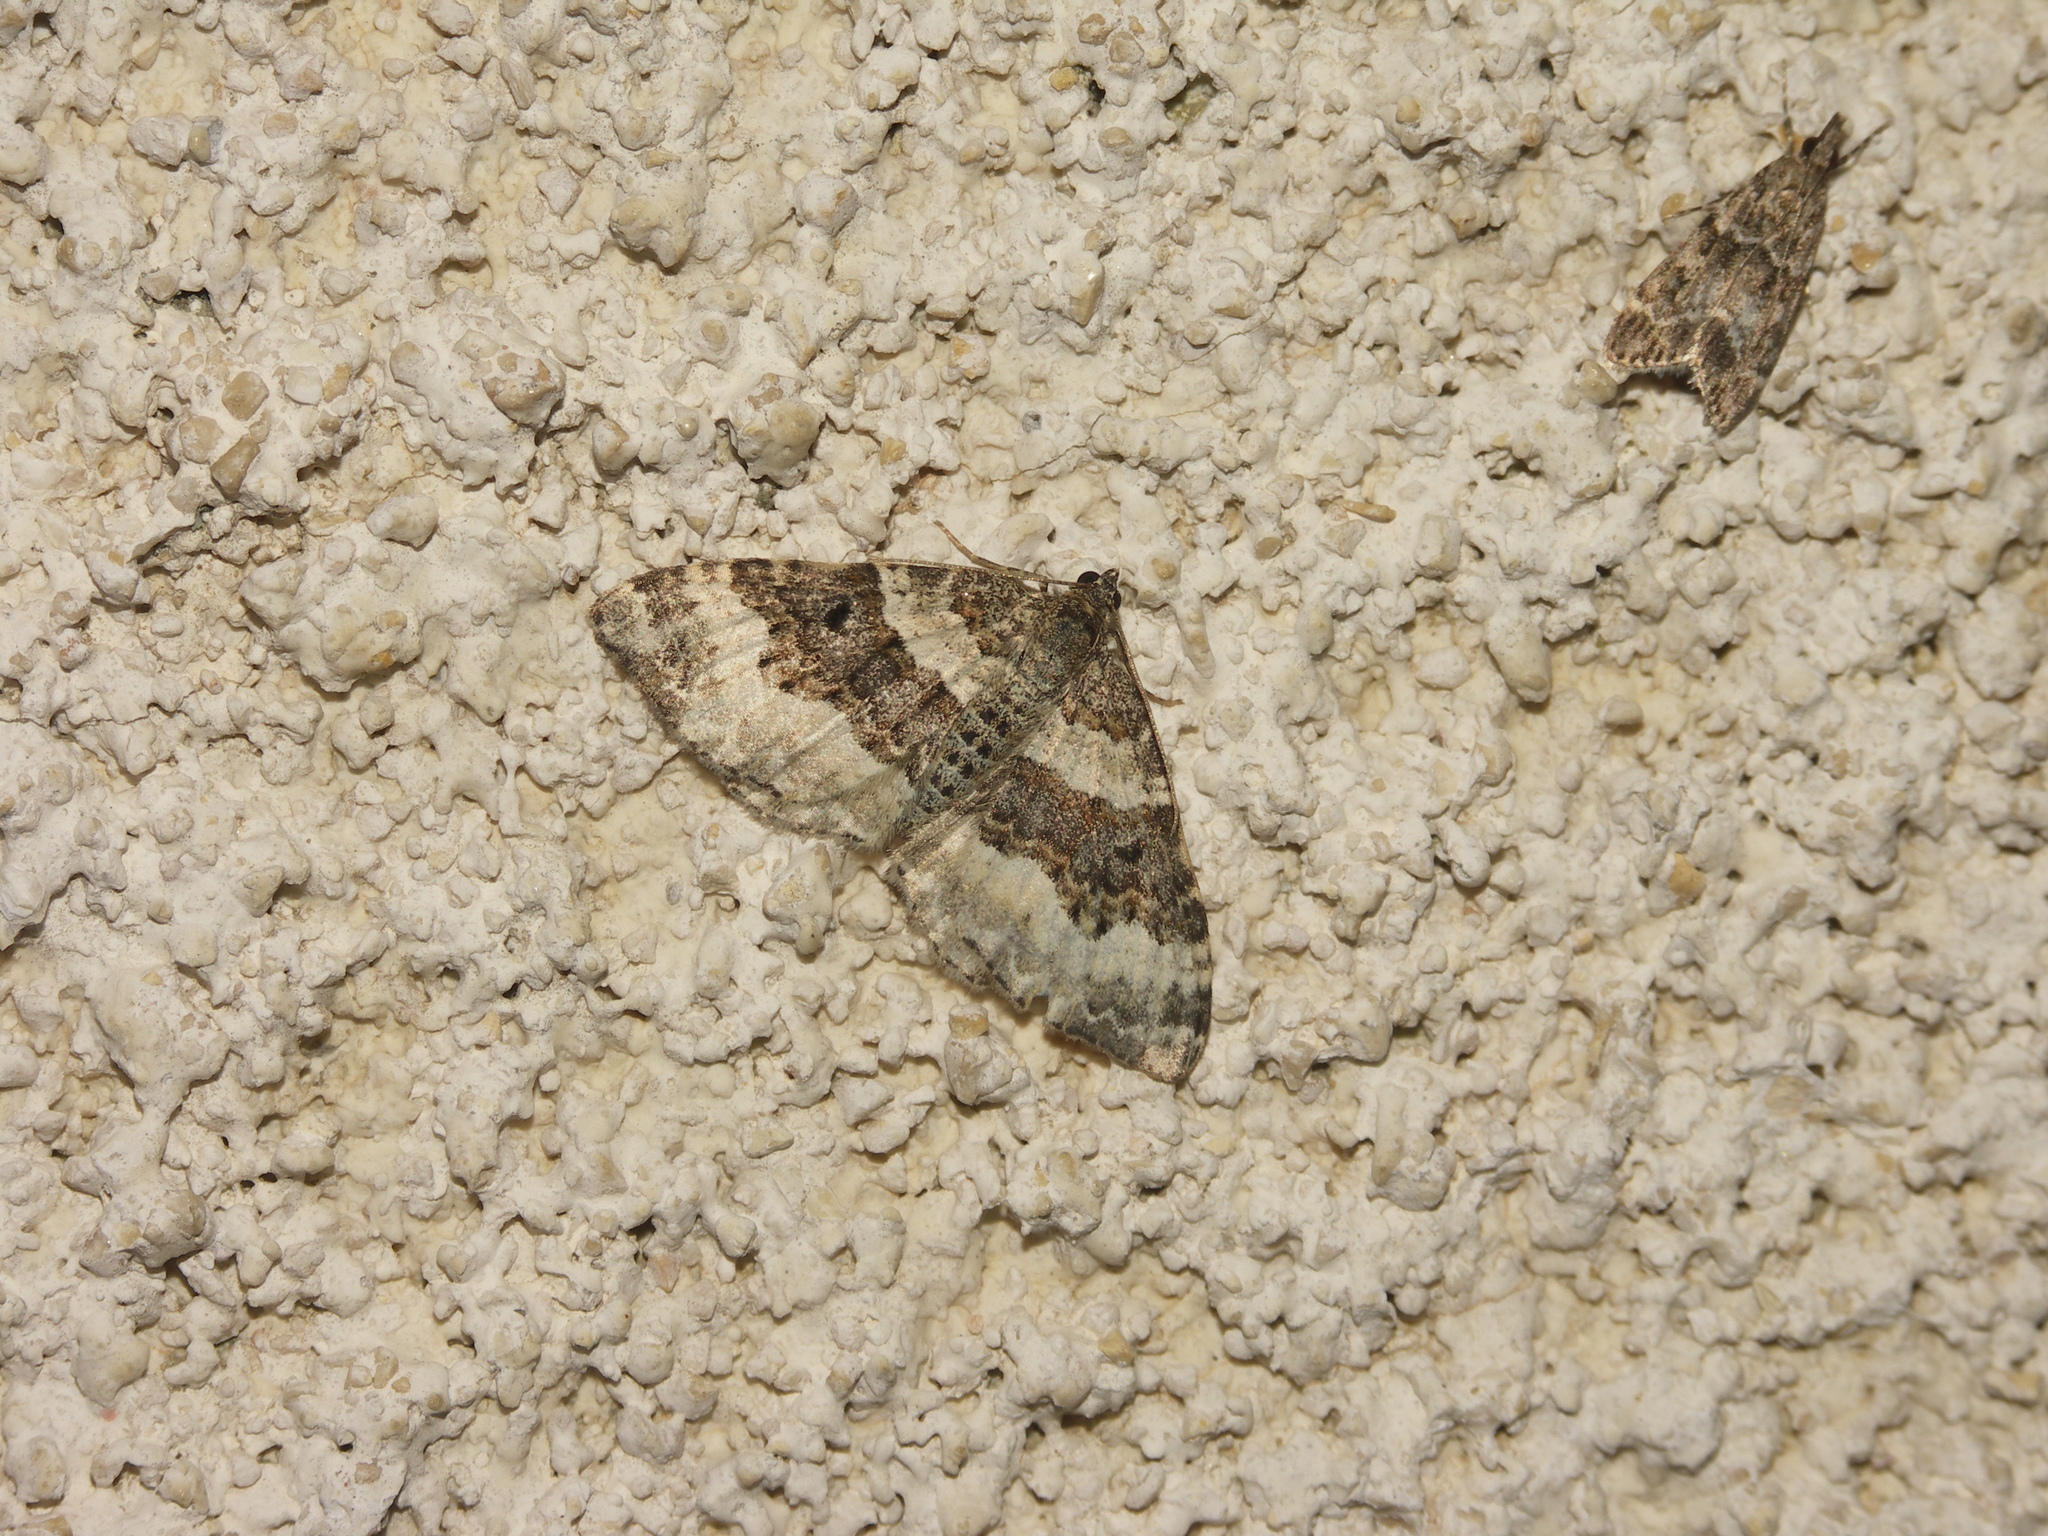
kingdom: Animalia
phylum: Arthropoda
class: Insecta
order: Lepidoptera
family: Geometridae
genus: Epirrhoe
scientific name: Epirrhoe alternata
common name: Common carpet
